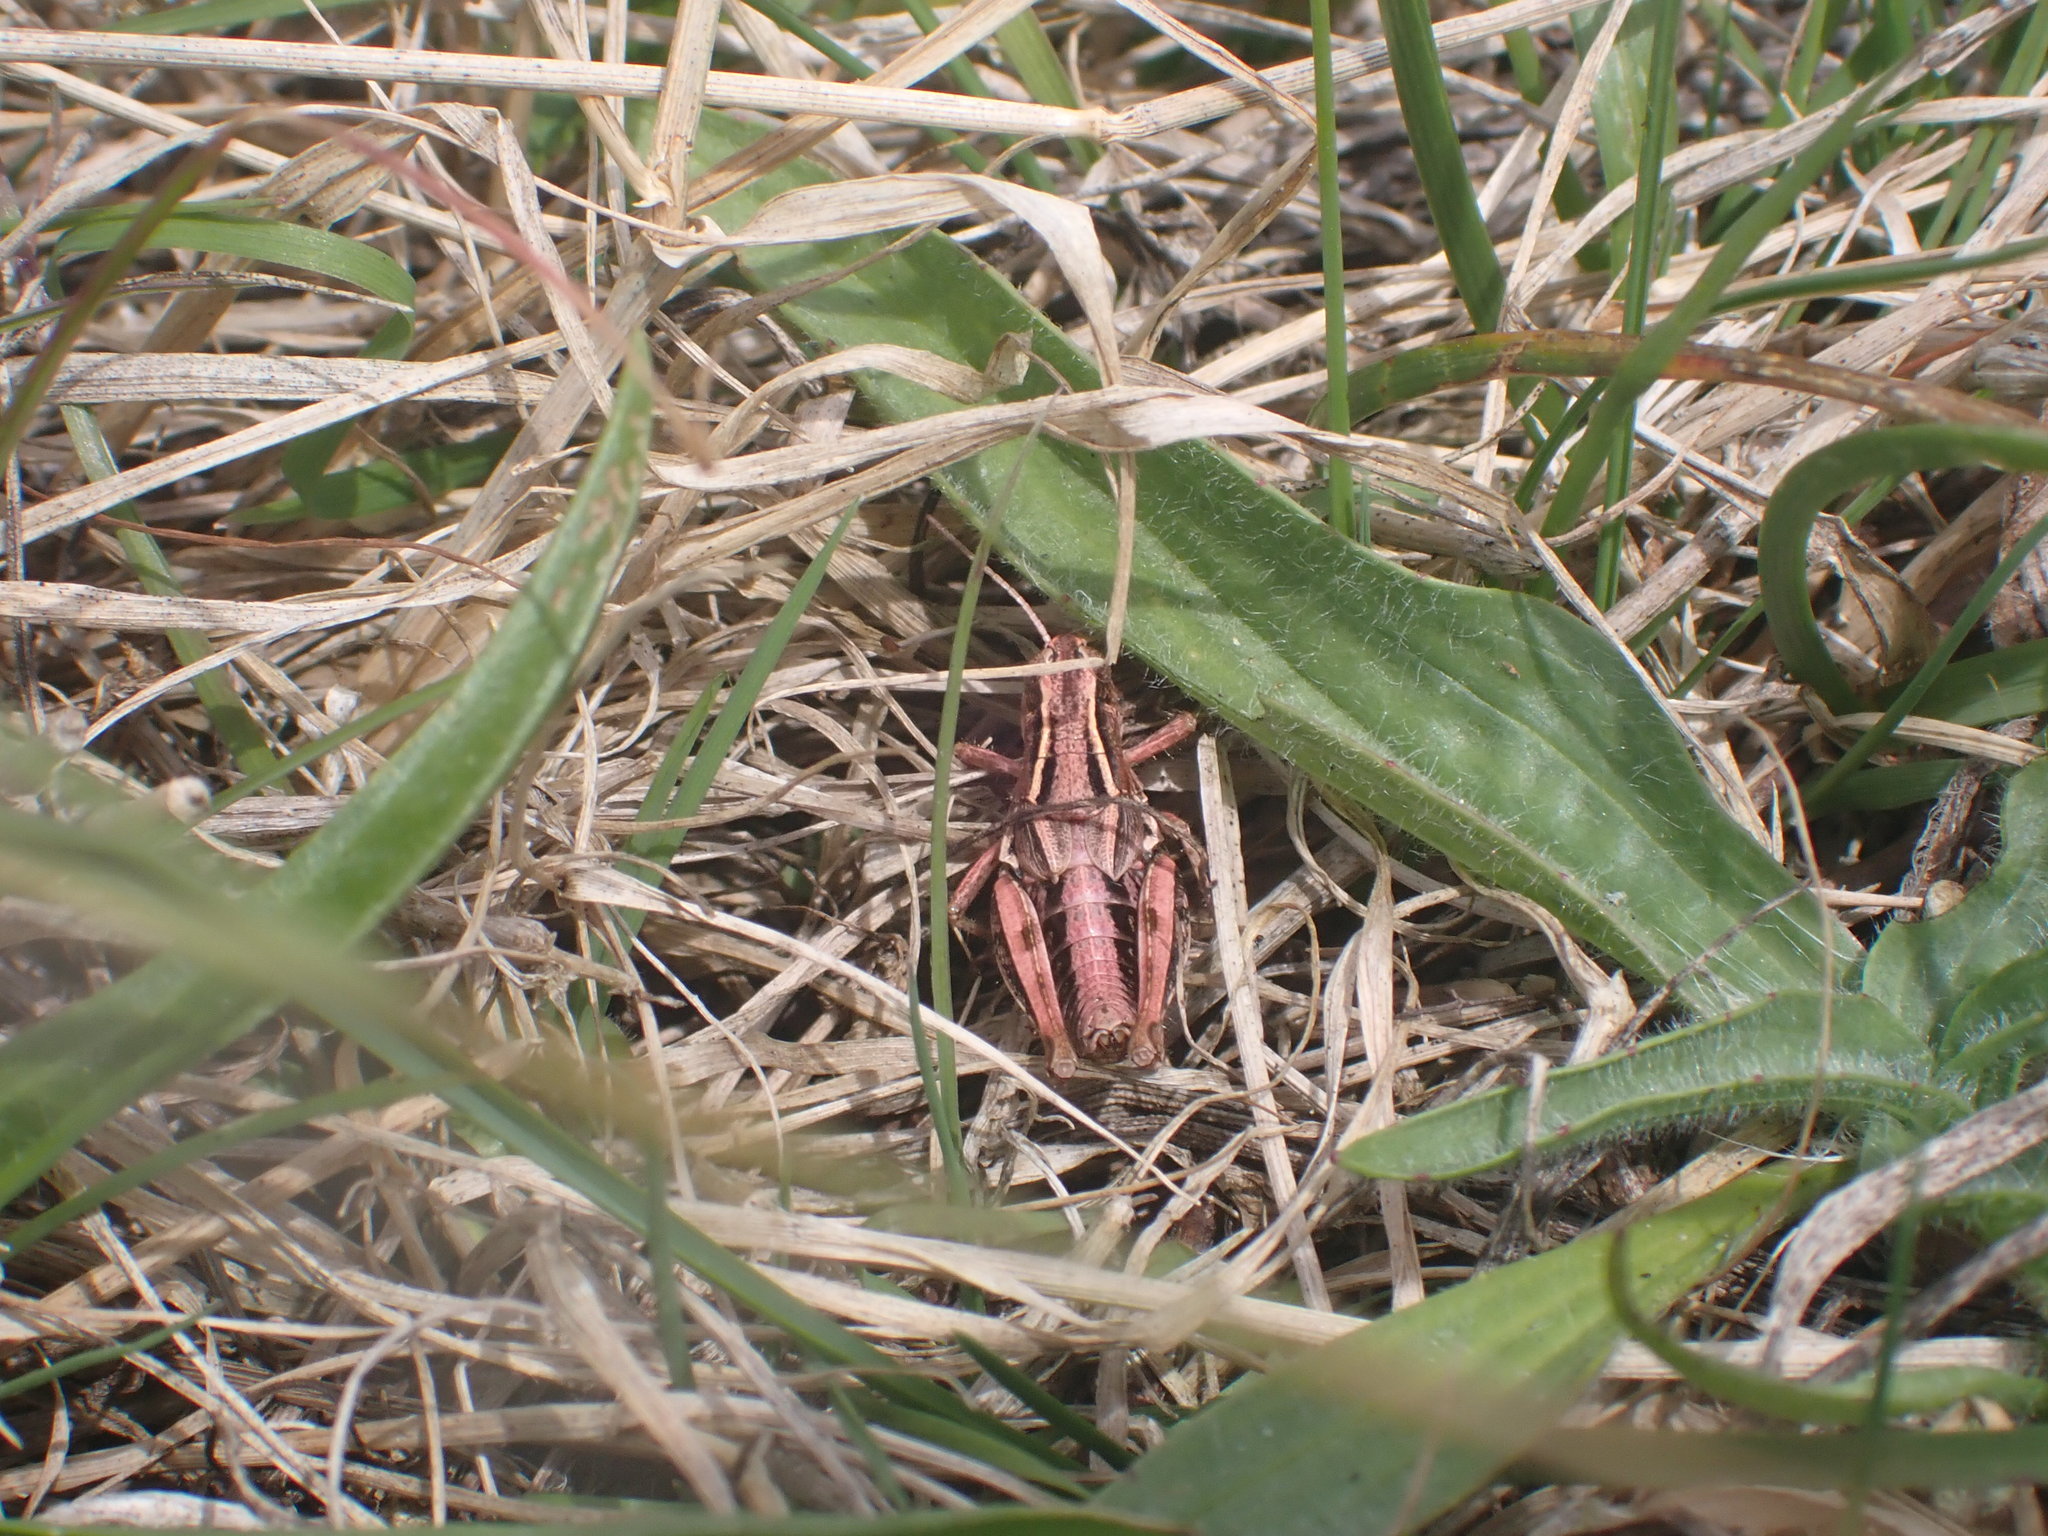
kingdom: Animalia
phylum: Arthropoda
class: Insecta
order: Orthoptera
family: Acrididae
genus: Phaulacridium
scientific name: Phaulacridium marginale
